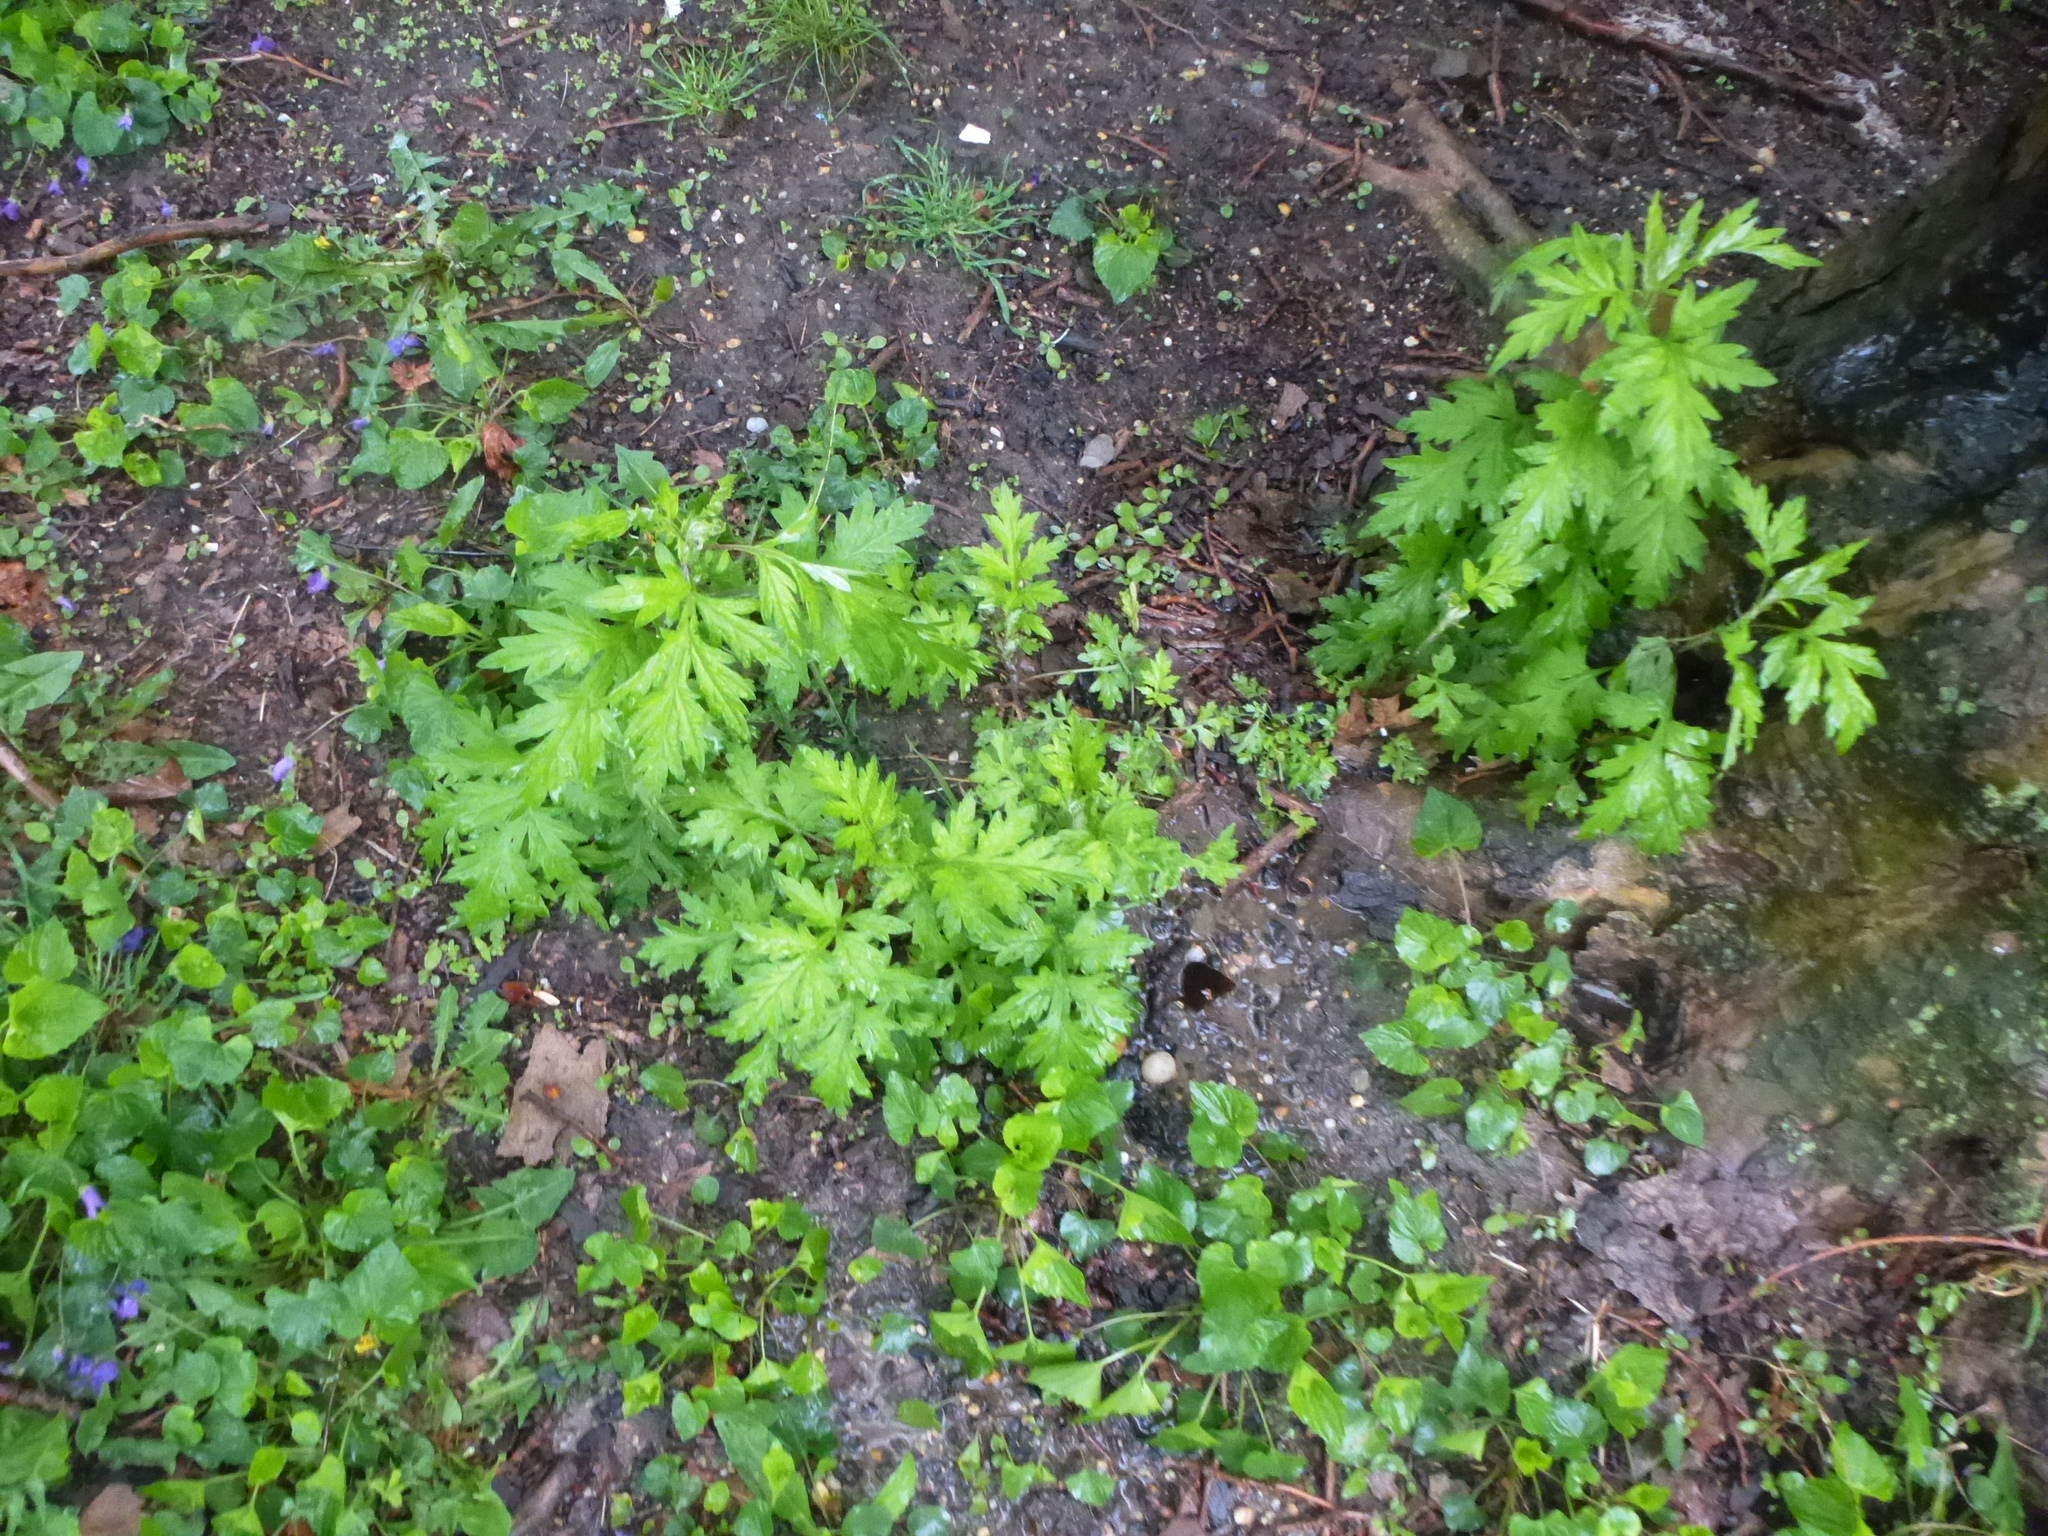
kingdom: Plantae
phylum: Tracheophyta
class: Magnoliopsida
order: Asterales
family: Asteraceae
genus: Artemisia
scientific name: Artemisia vulgaris
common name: Mugwort
